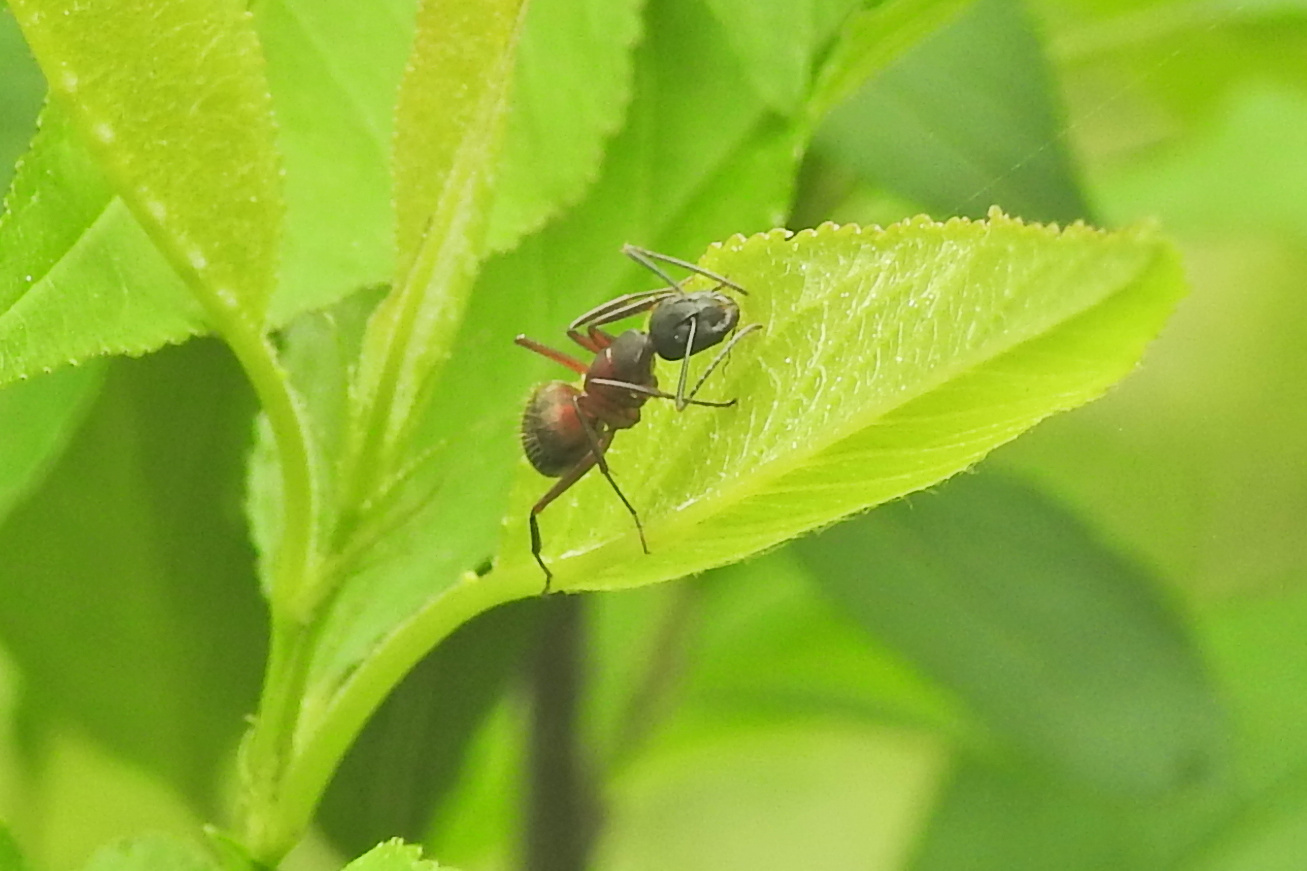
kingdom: Animalia
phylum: Arthropoda
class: Insecta
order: Hymenoptera
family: Formicidae
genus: Camponotus
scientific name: Camponotus chromaiodes
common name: Red carpenter ant
